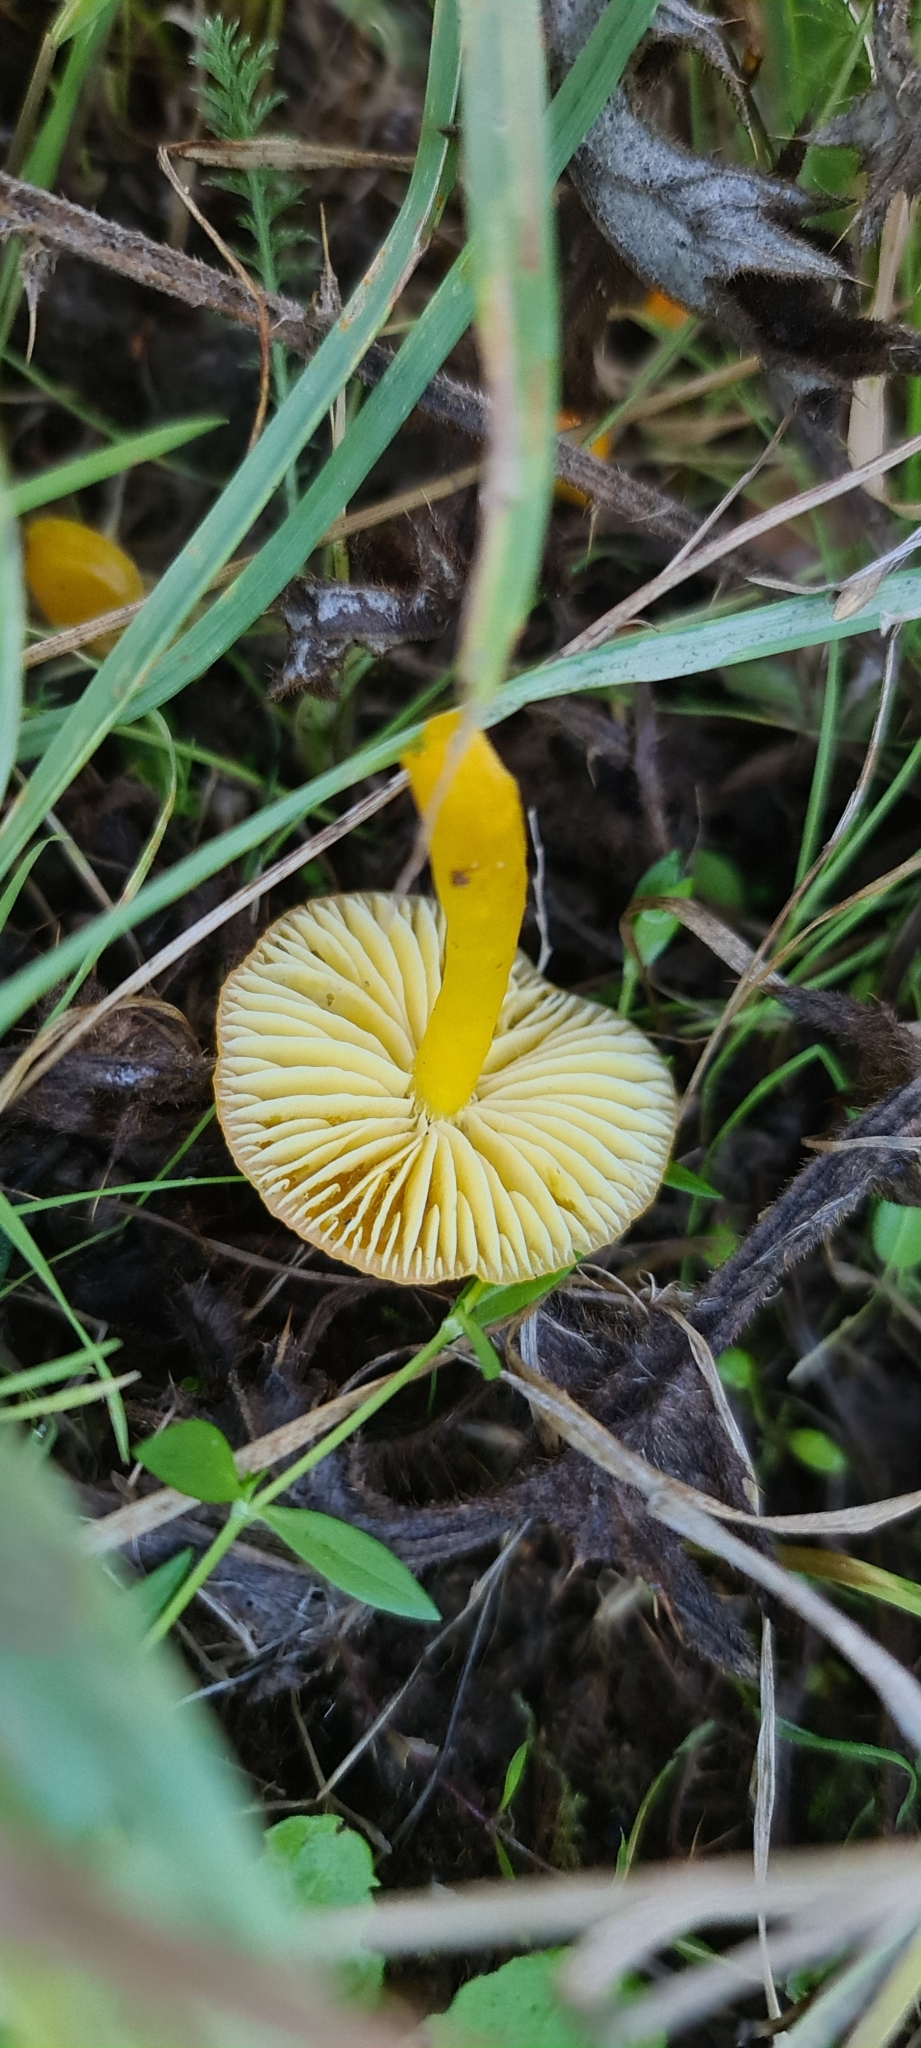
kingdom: Fungi
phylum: Basidiomycota
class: Agaricomycetes
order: Agaricales
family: Hygrophoraceae
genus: Hygrocybe
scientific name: Hygrocybe ceracea
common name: Butter waxcap
